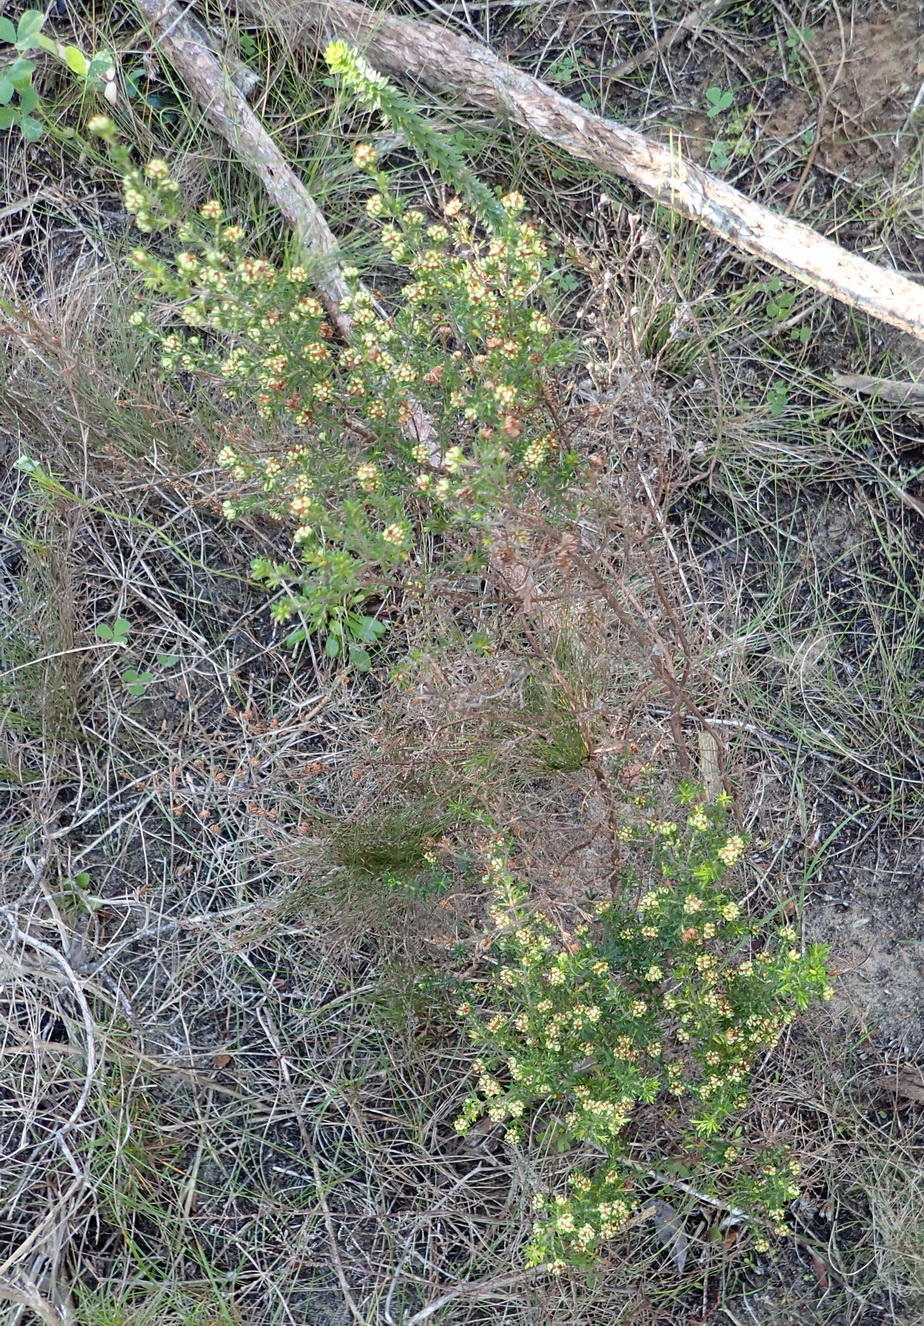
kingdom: Plantae
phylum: Tracheophyta
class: Magnoliopsida
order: Ericales
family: Ericaceae
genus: Erica
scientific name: Erica glumiflora
